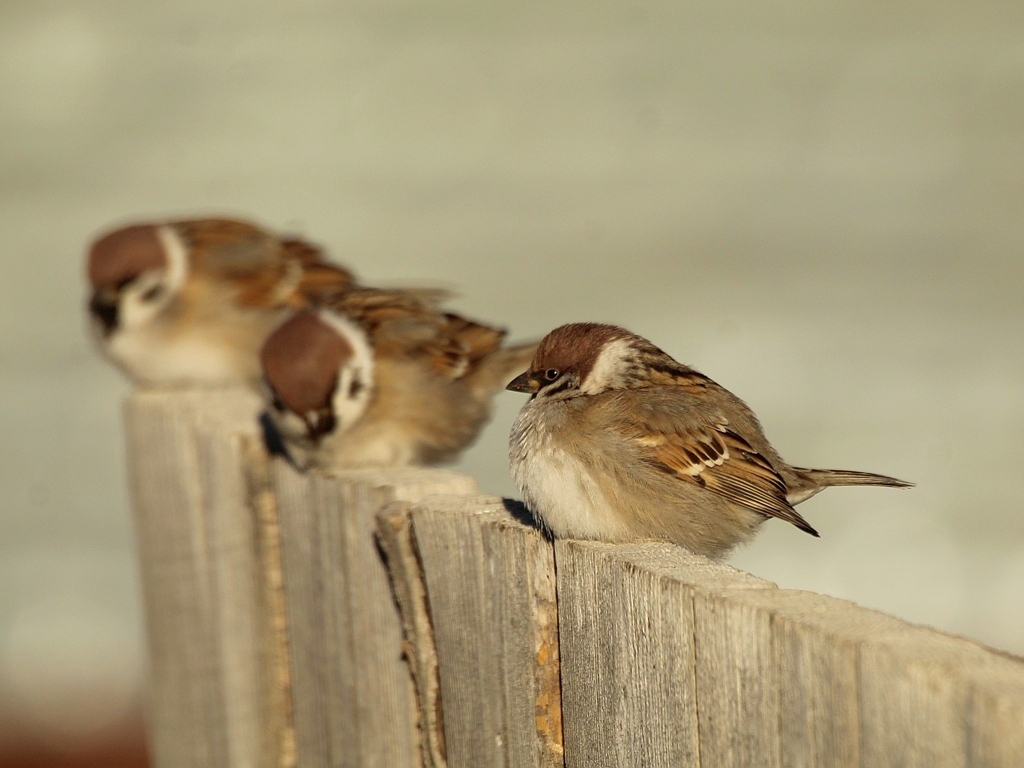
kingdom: Animalia
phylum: Chordata
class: Aves
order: Passeriformes
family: Passeridae
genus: Passer
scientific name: Passer montanus
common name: Eurasian tree sparrow
